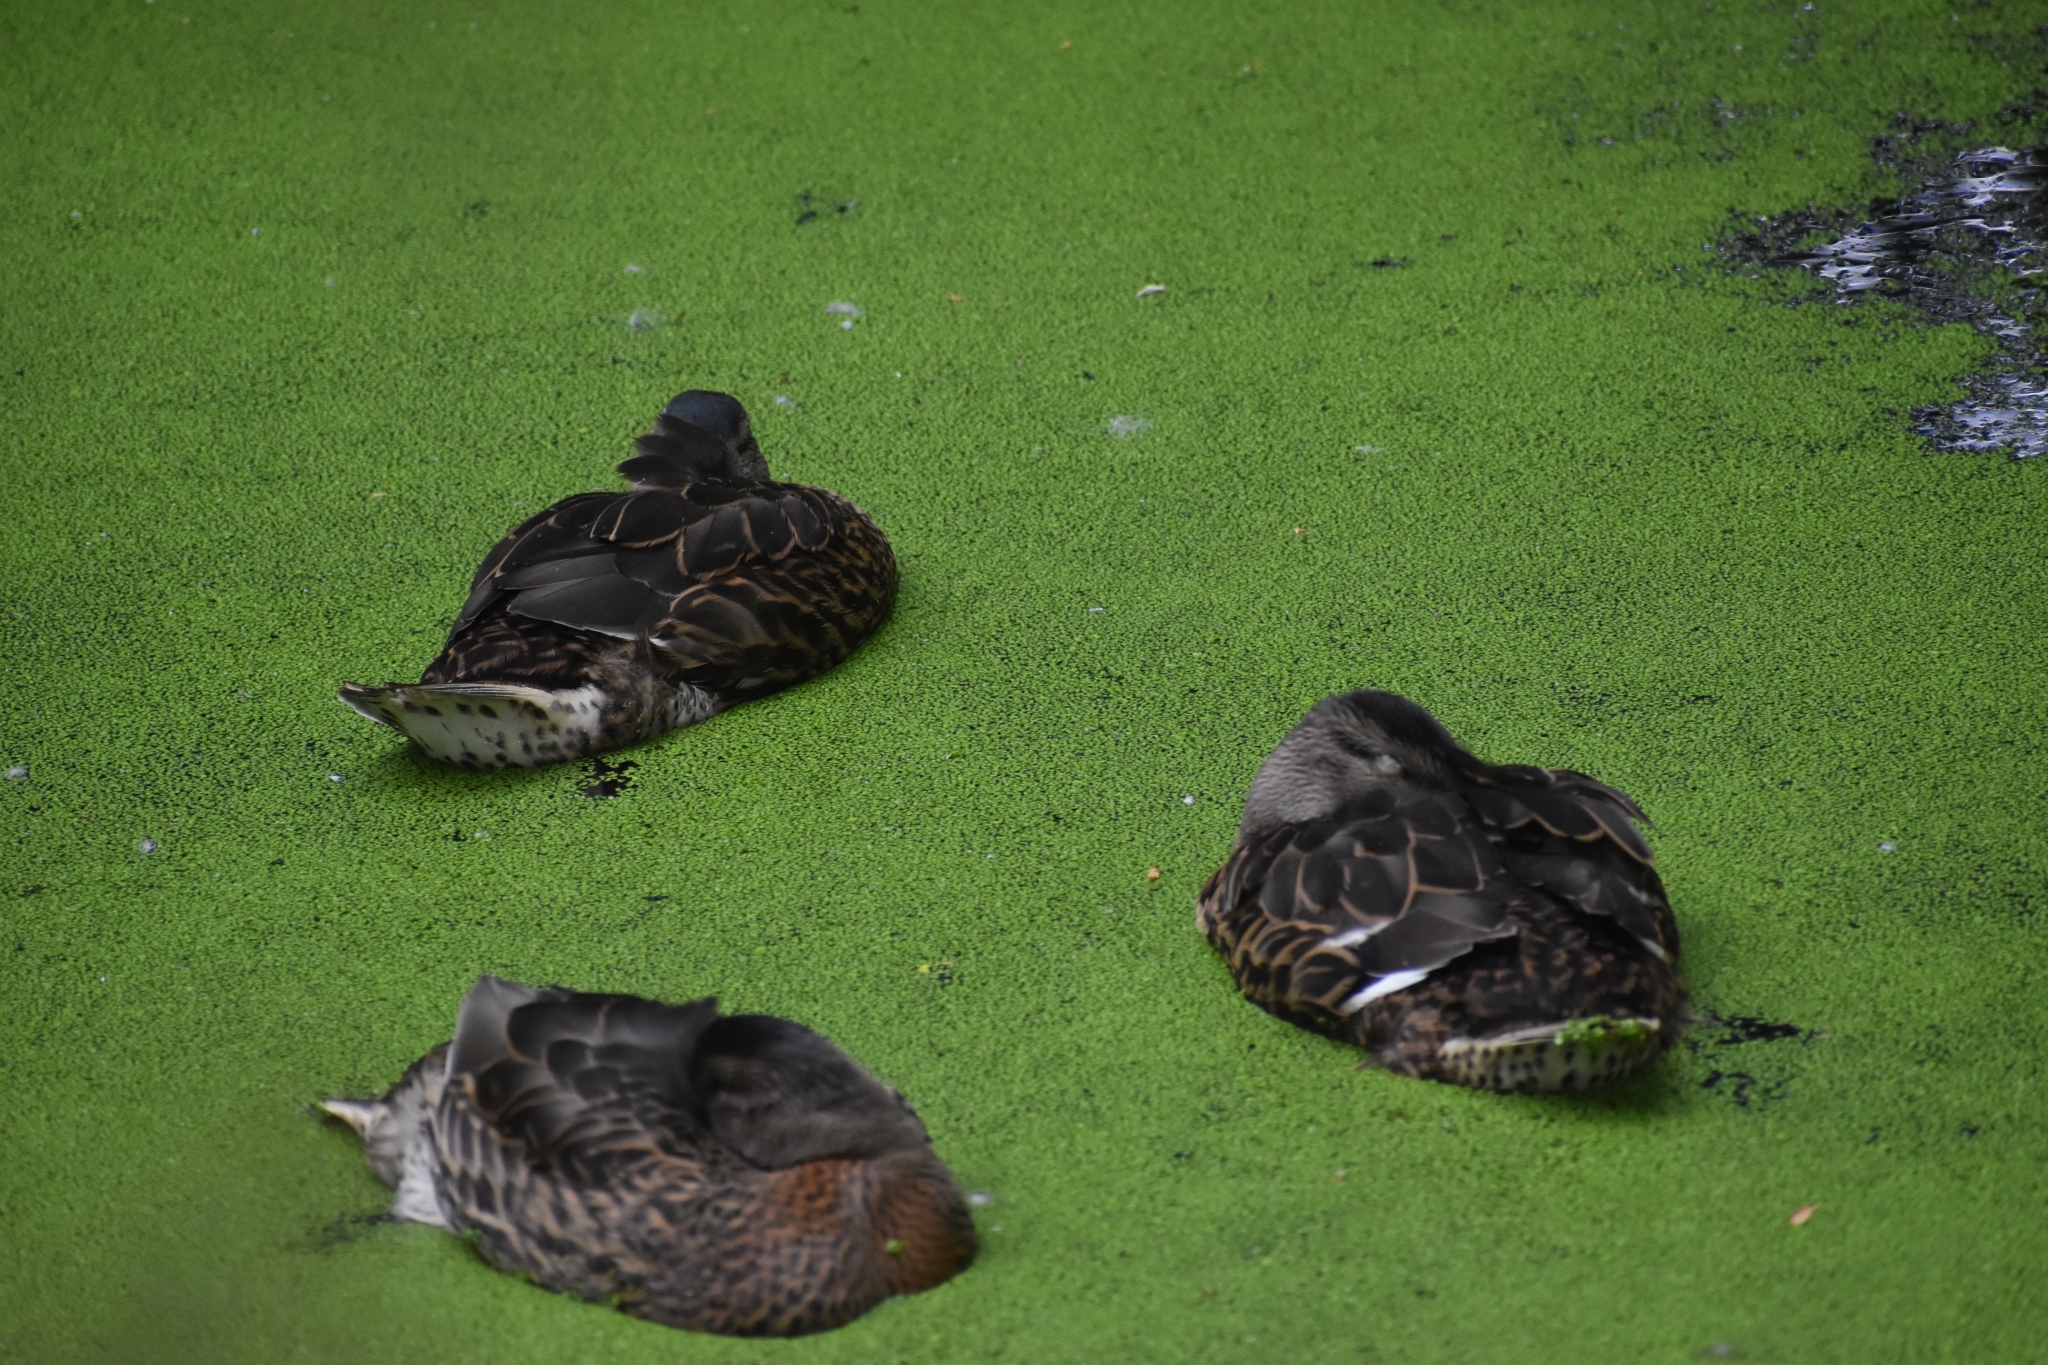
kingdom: Animalia
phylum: Chordata
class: Aves
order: Anseriformes
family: Anatidae
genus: Anas
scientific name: Anas platyrhynchos
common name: Mallard
